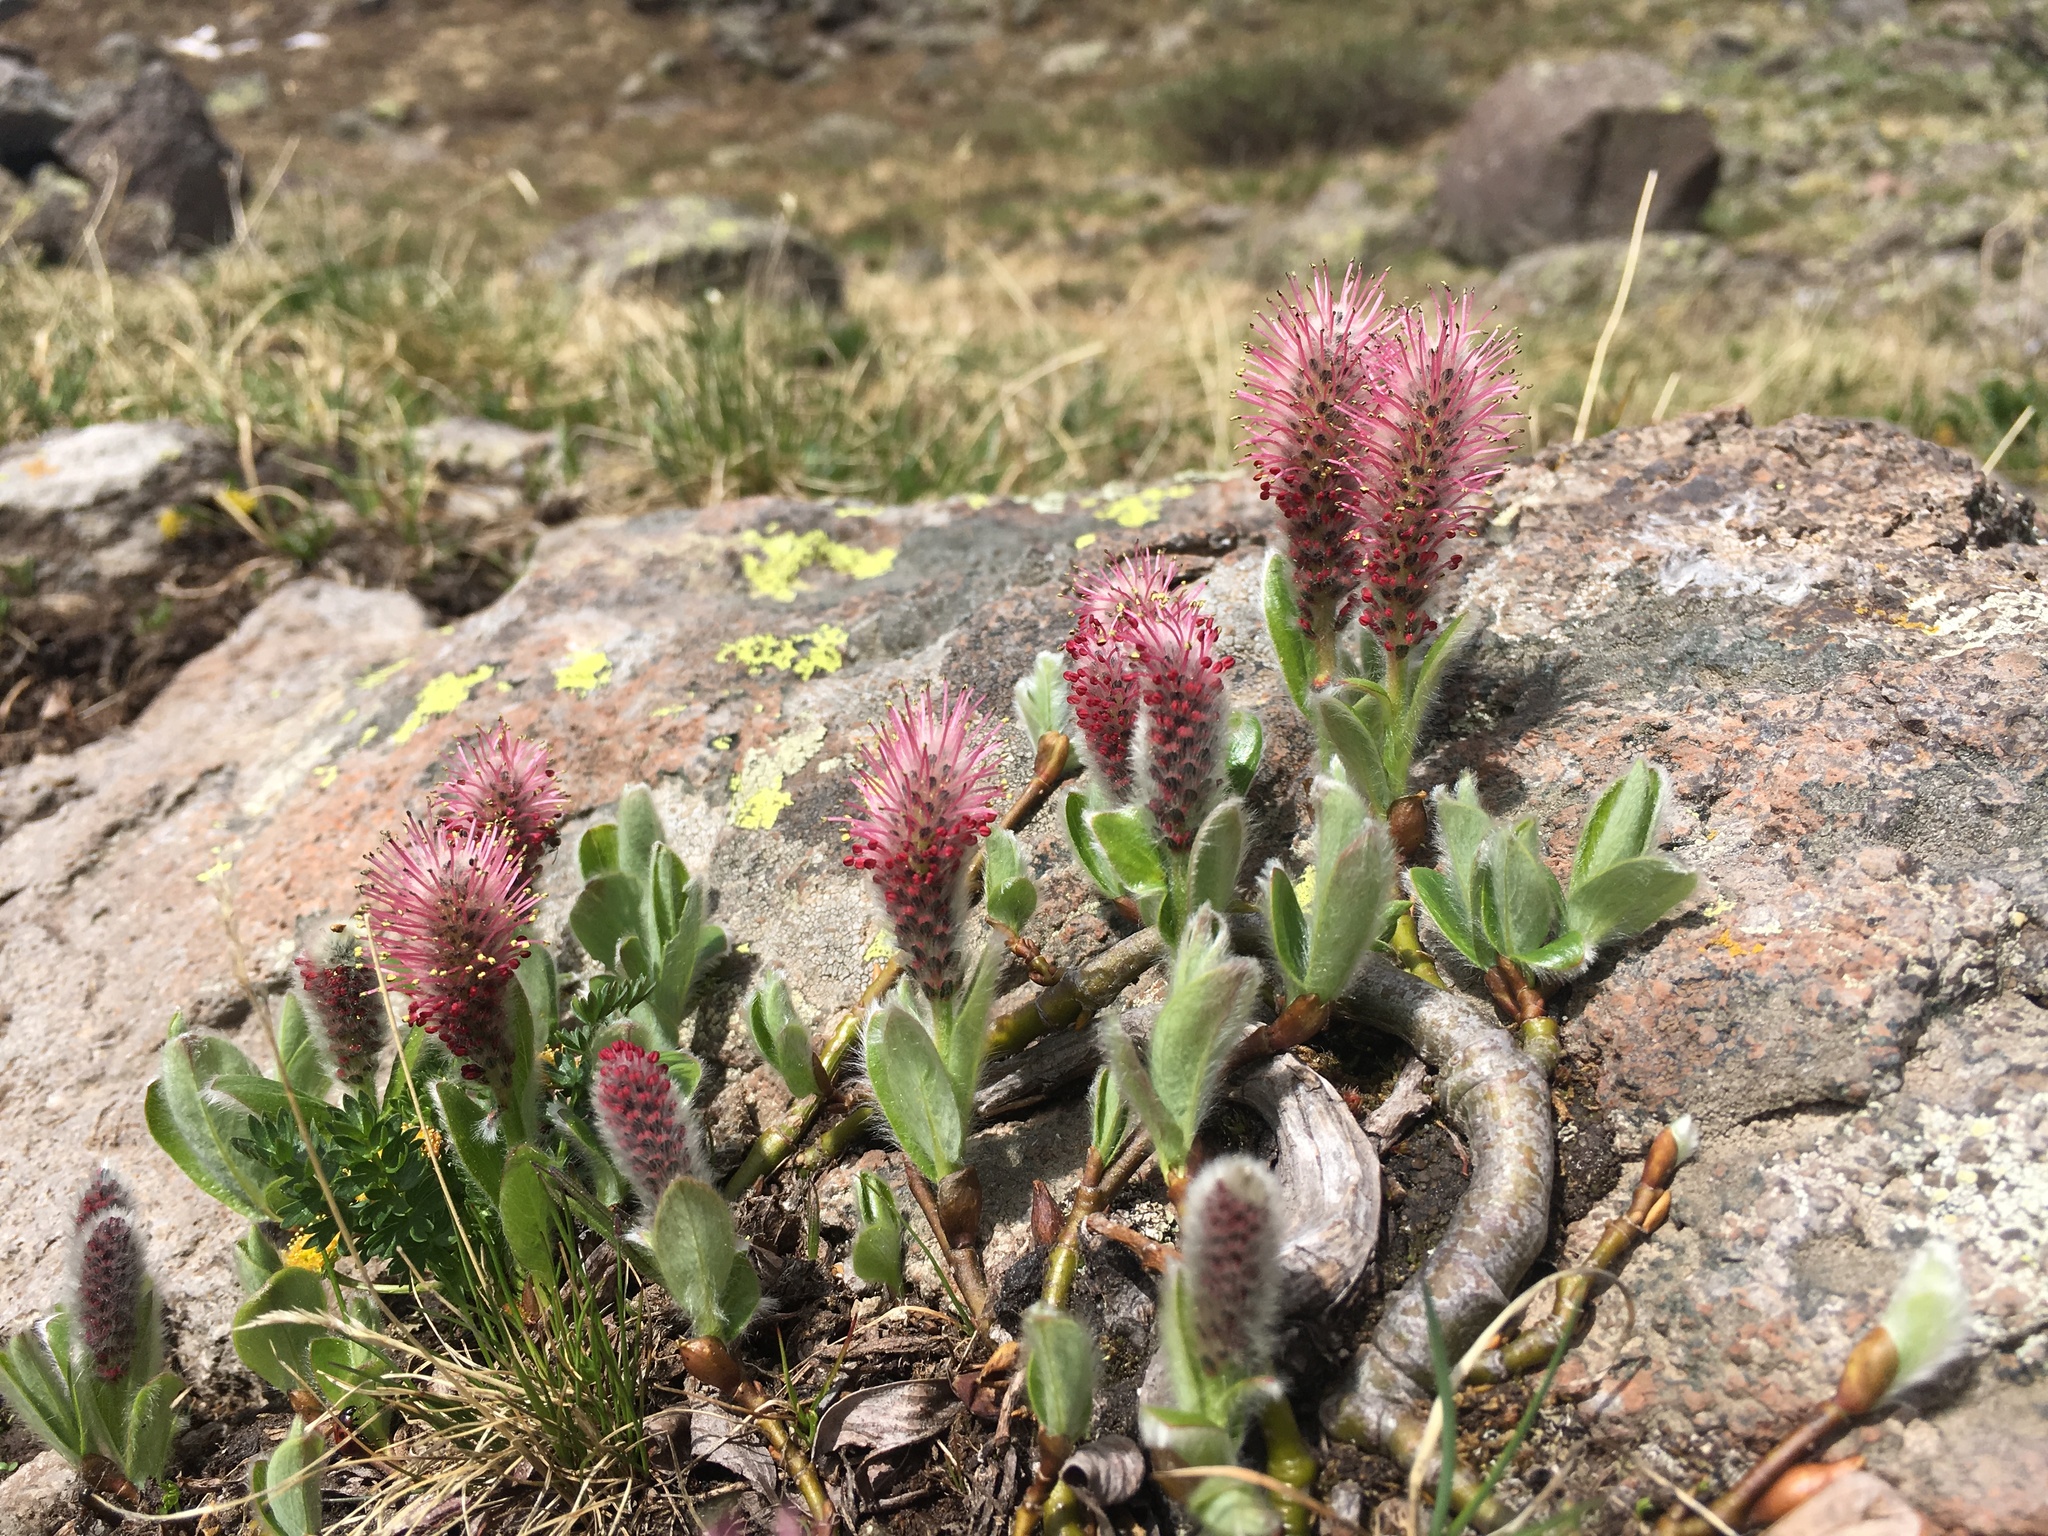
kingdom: Plantae
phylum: Tracheophyta
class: Magnoliopsida
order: Malpighiales
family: Salicaceae
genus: Salix
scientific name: Salix petrophila
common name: Rocky mountain willow
